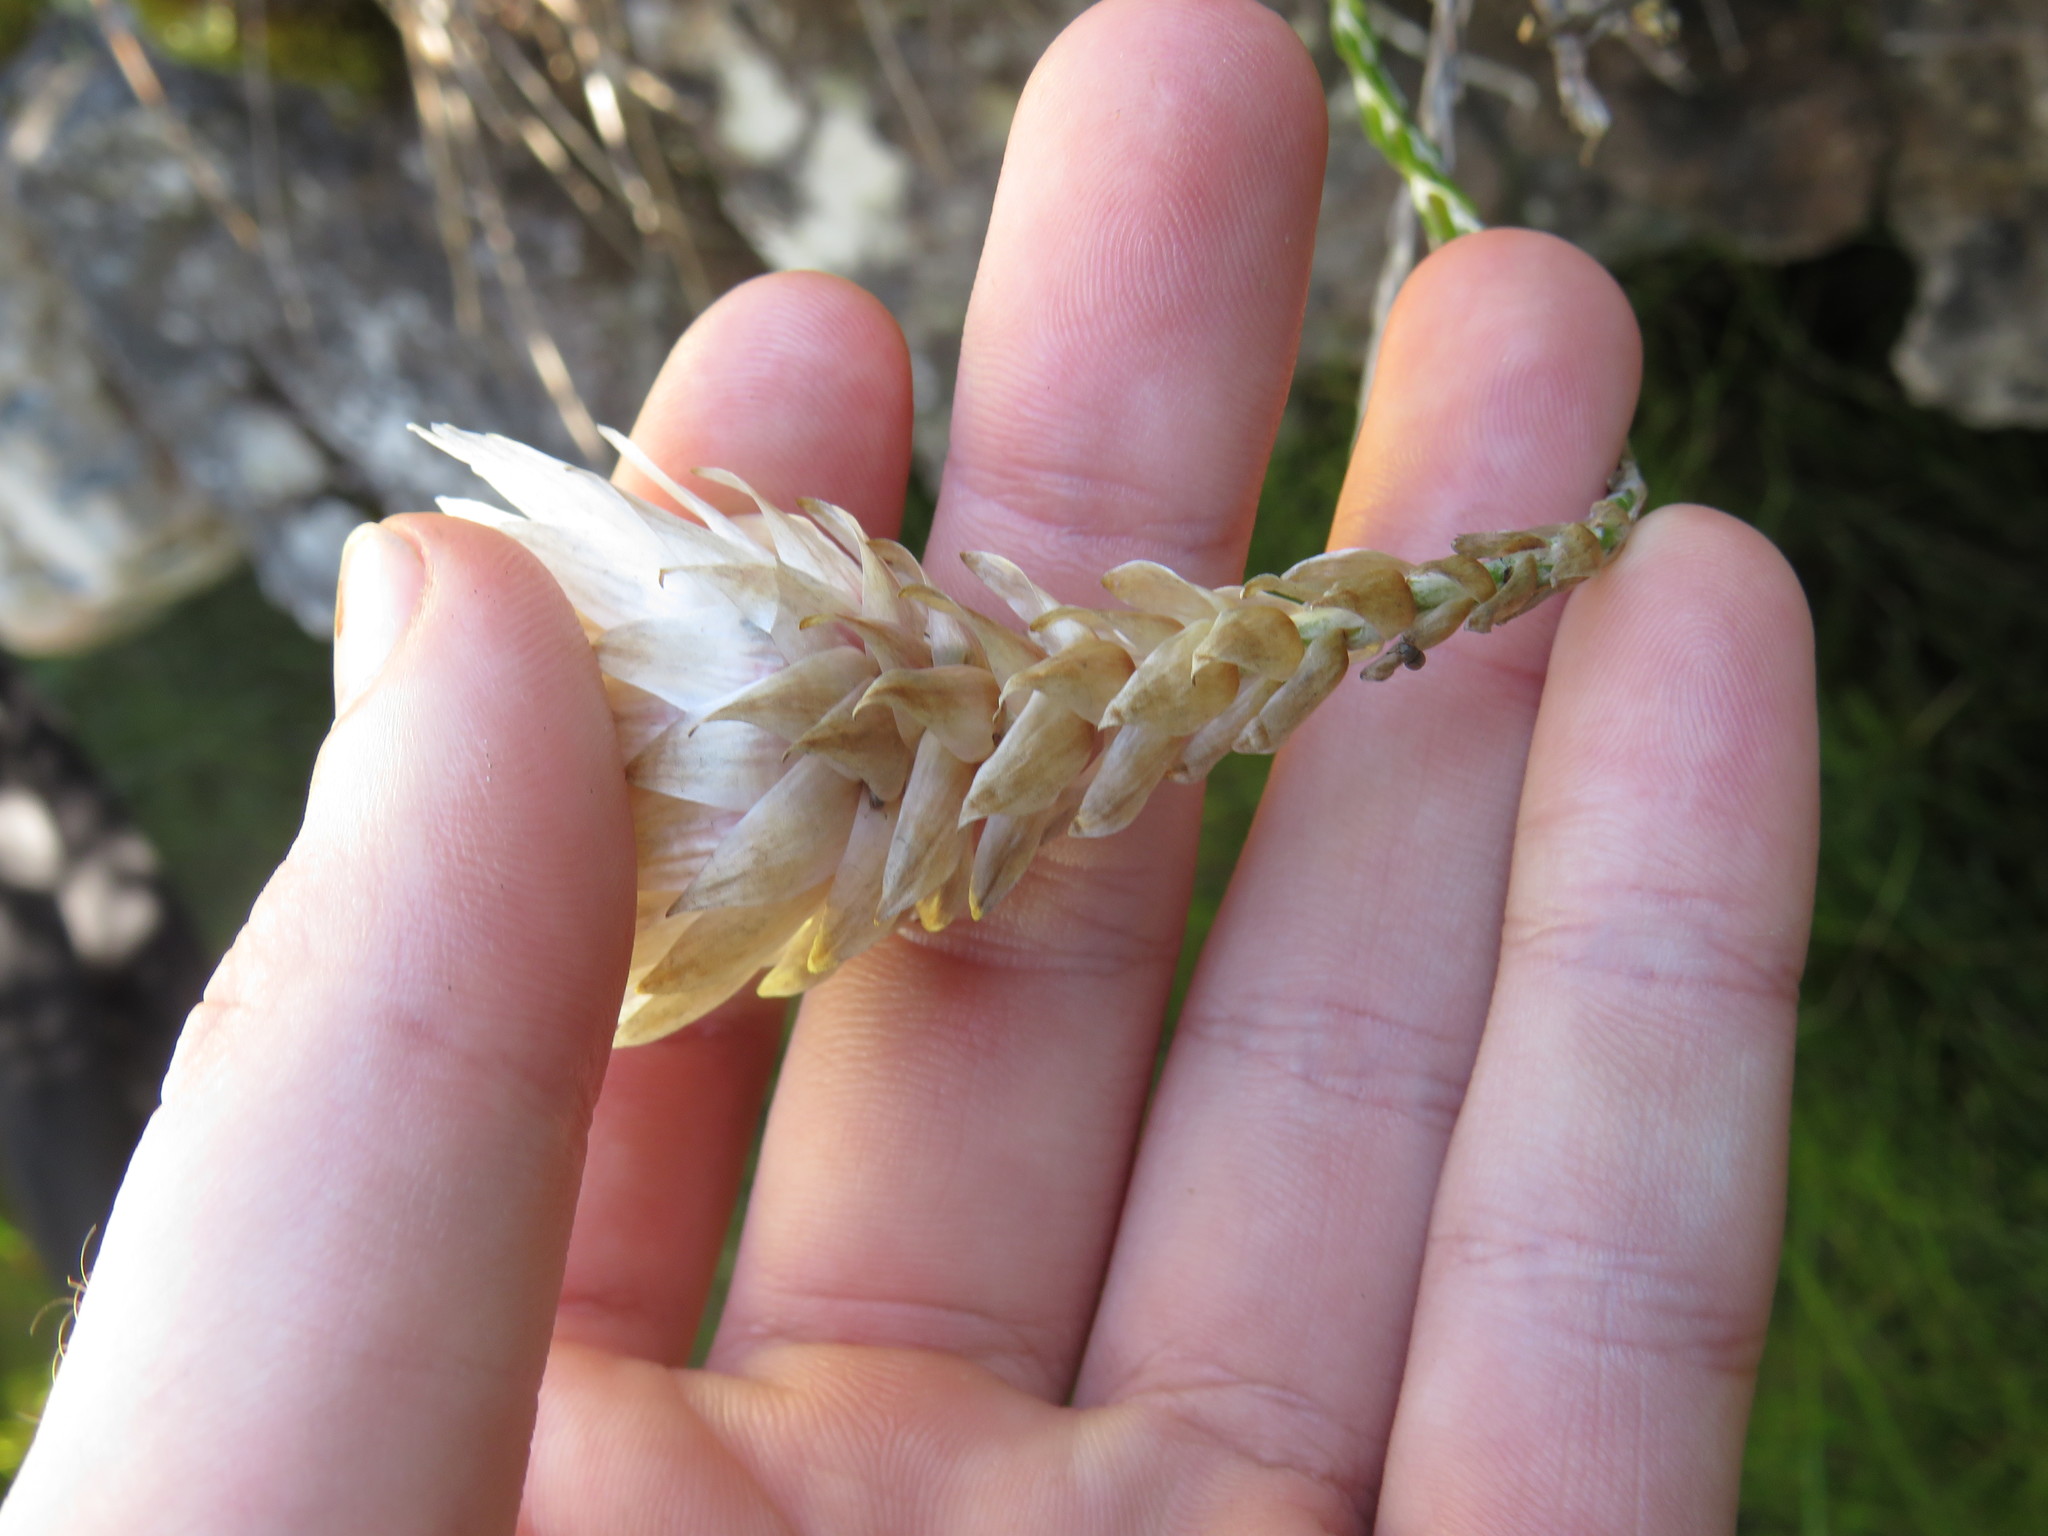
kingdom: Plantae
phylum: Tracheophyta
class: Magnoliopsida
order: Asterales
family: Asteraceae
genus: Edmondia
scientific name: Edmondia pinifolia
